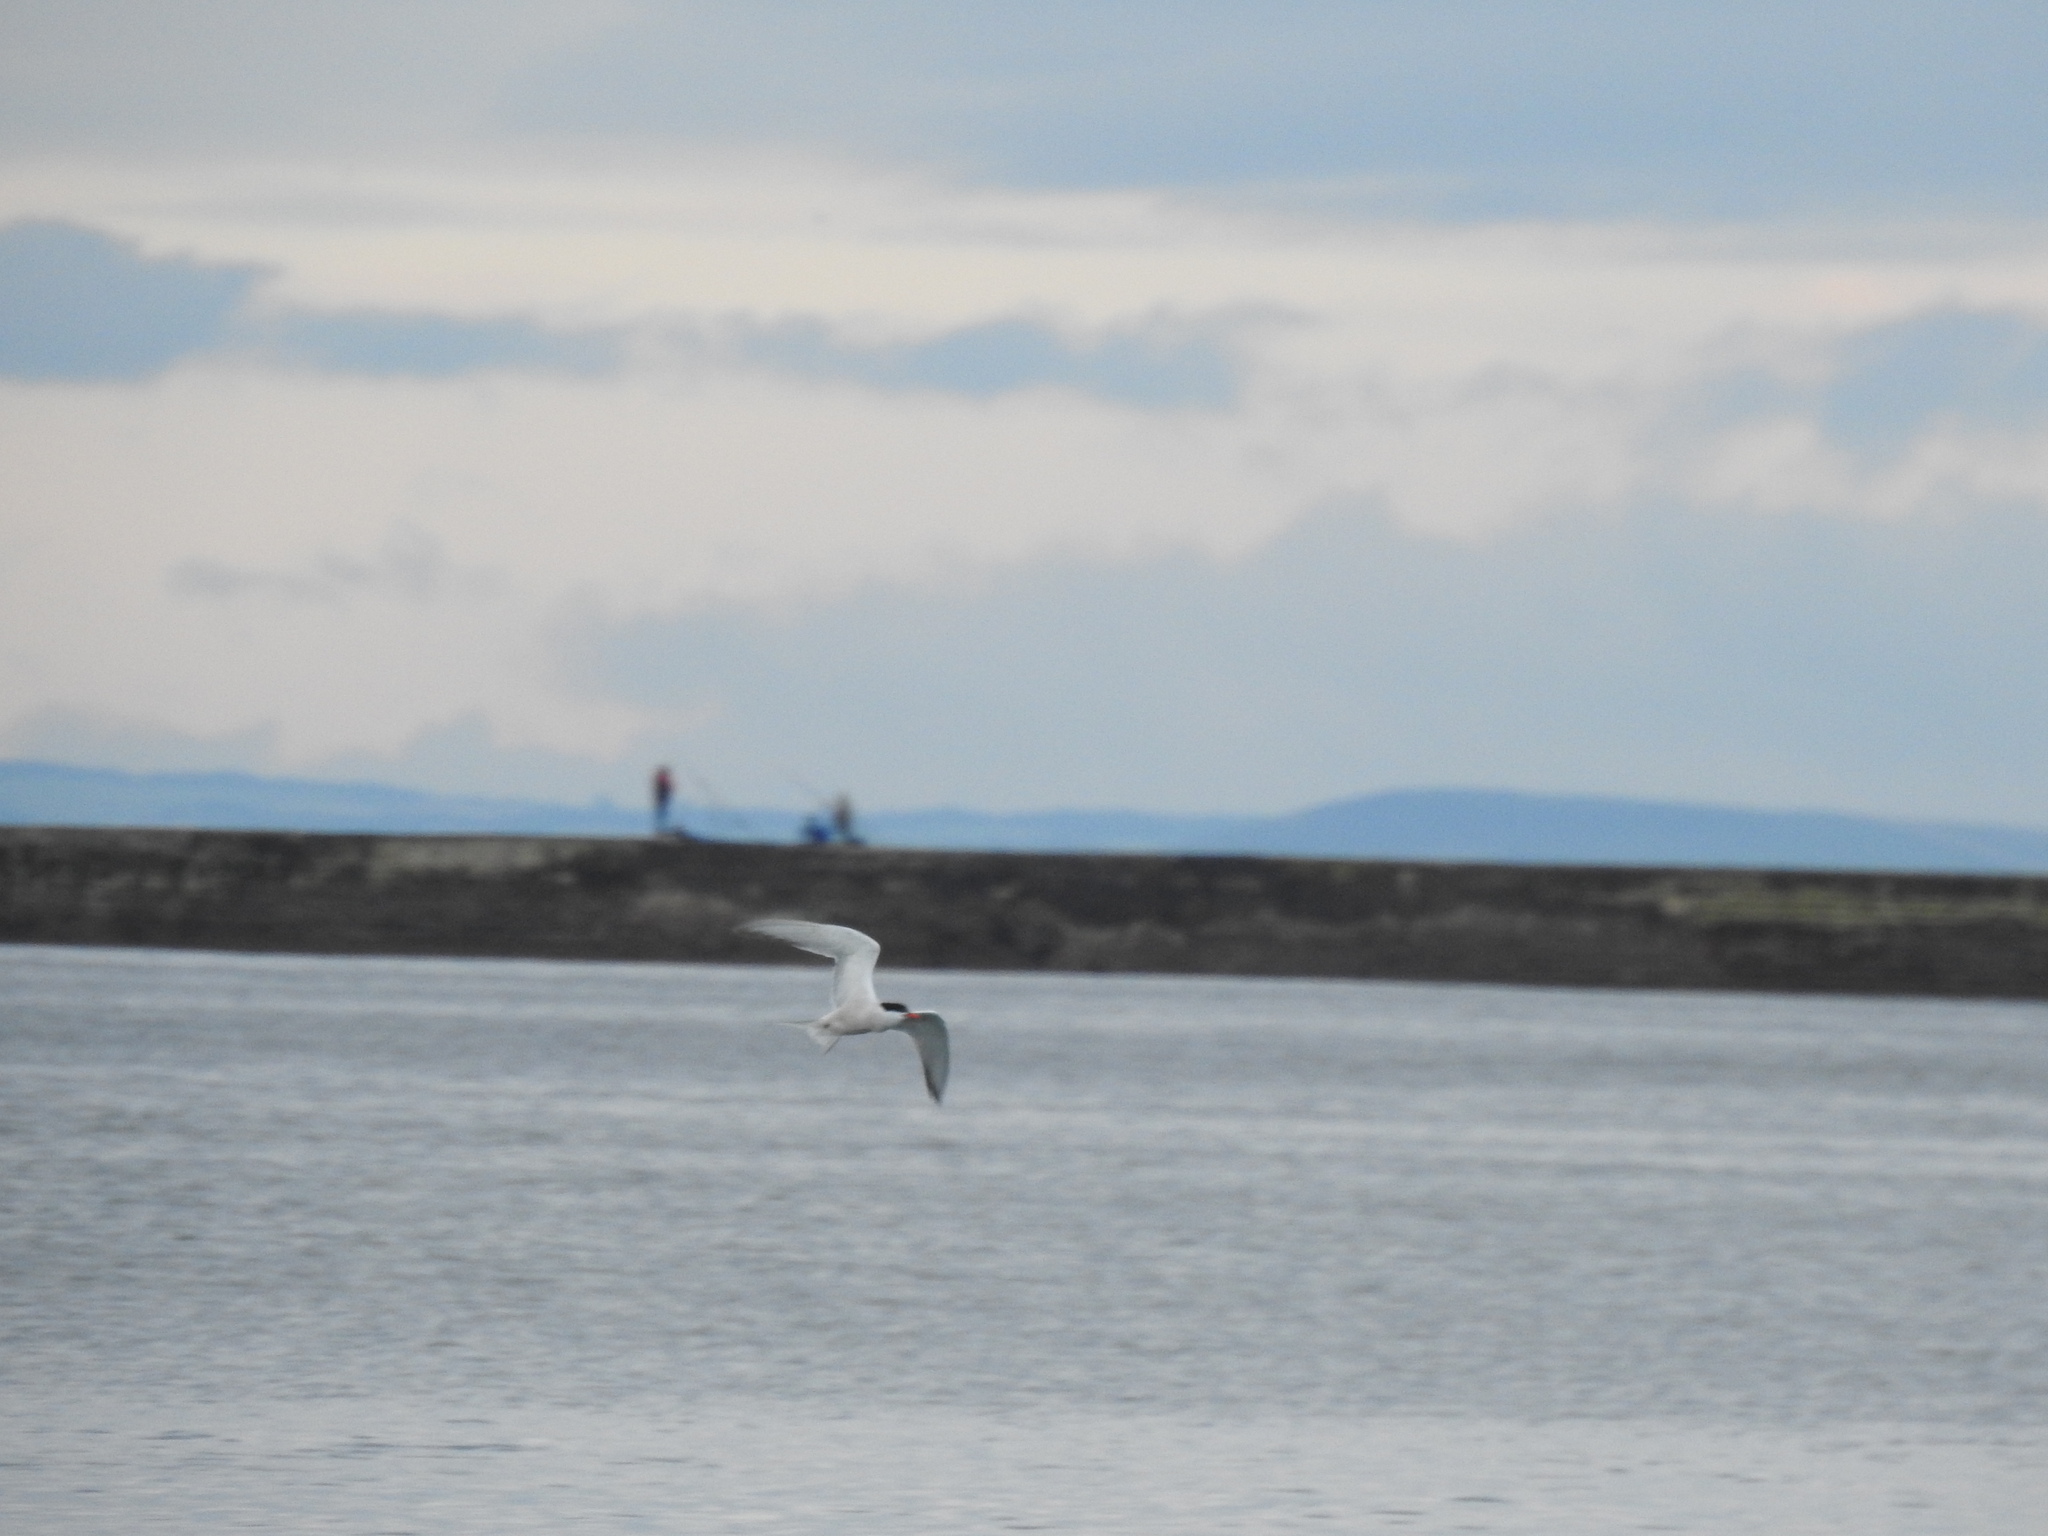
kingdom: Animalia
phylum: Chordata
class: Aves
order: Charadriiformes
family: Laridae
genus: Sterna
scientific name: Sterna hirundo
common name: Common tern
